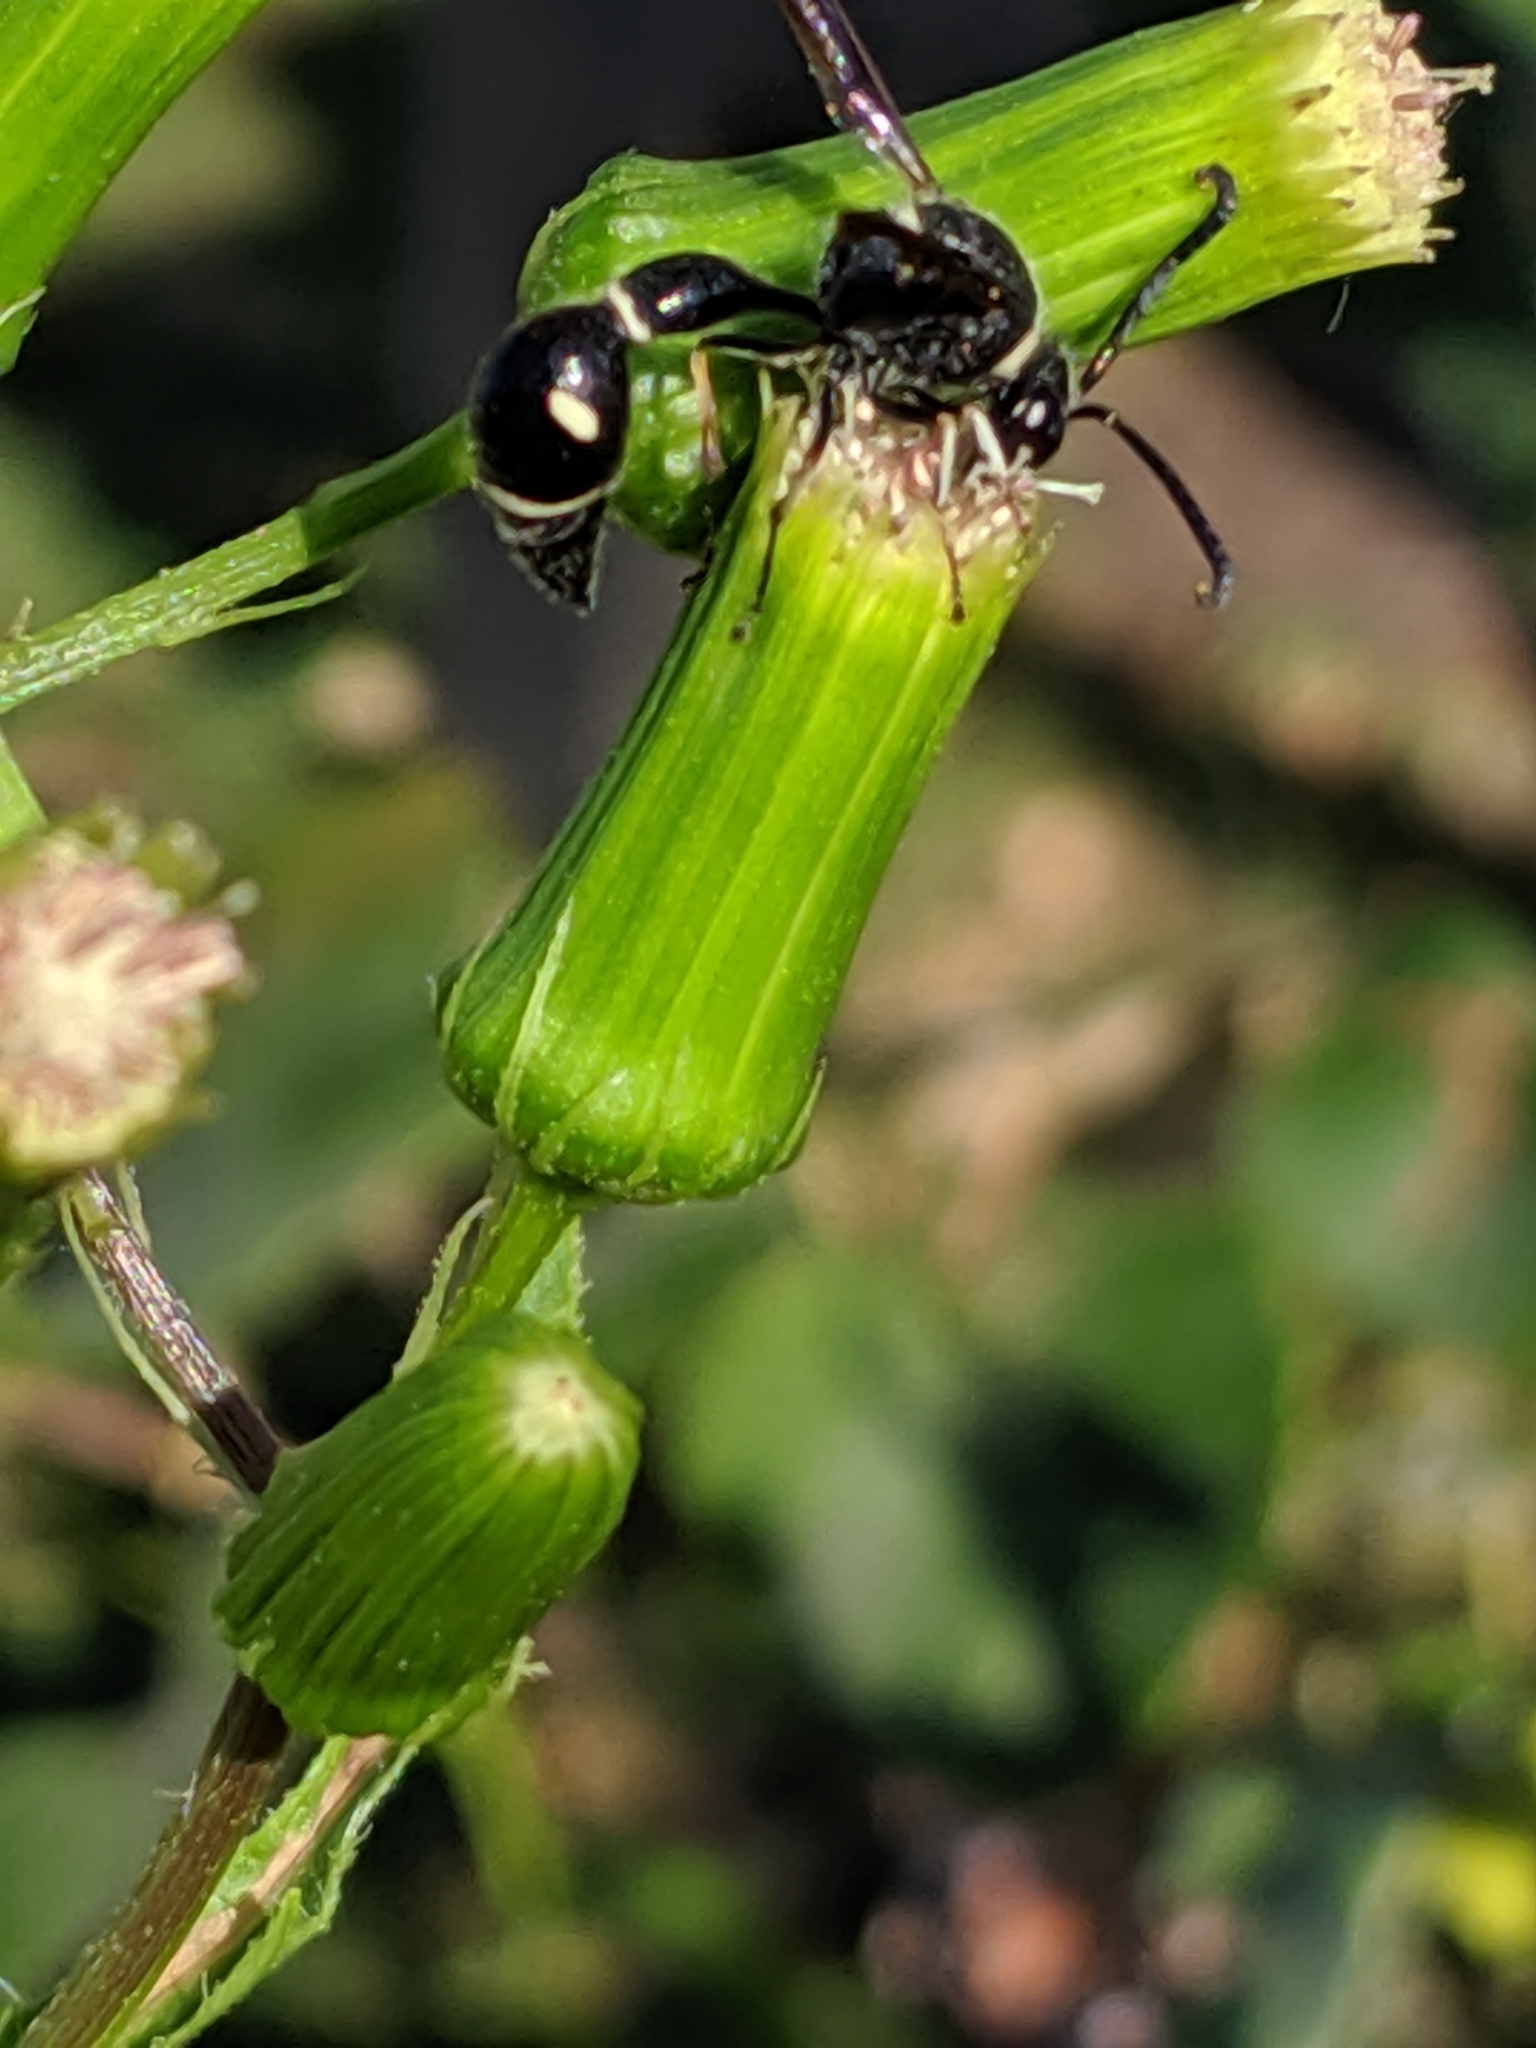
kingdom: Animalia
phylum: Arthropoda
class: Insecta
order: Hymenoptera
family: Vespidae
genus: Eumenes
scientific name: Eumenes fraternus
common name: Fraternal potter wasp
